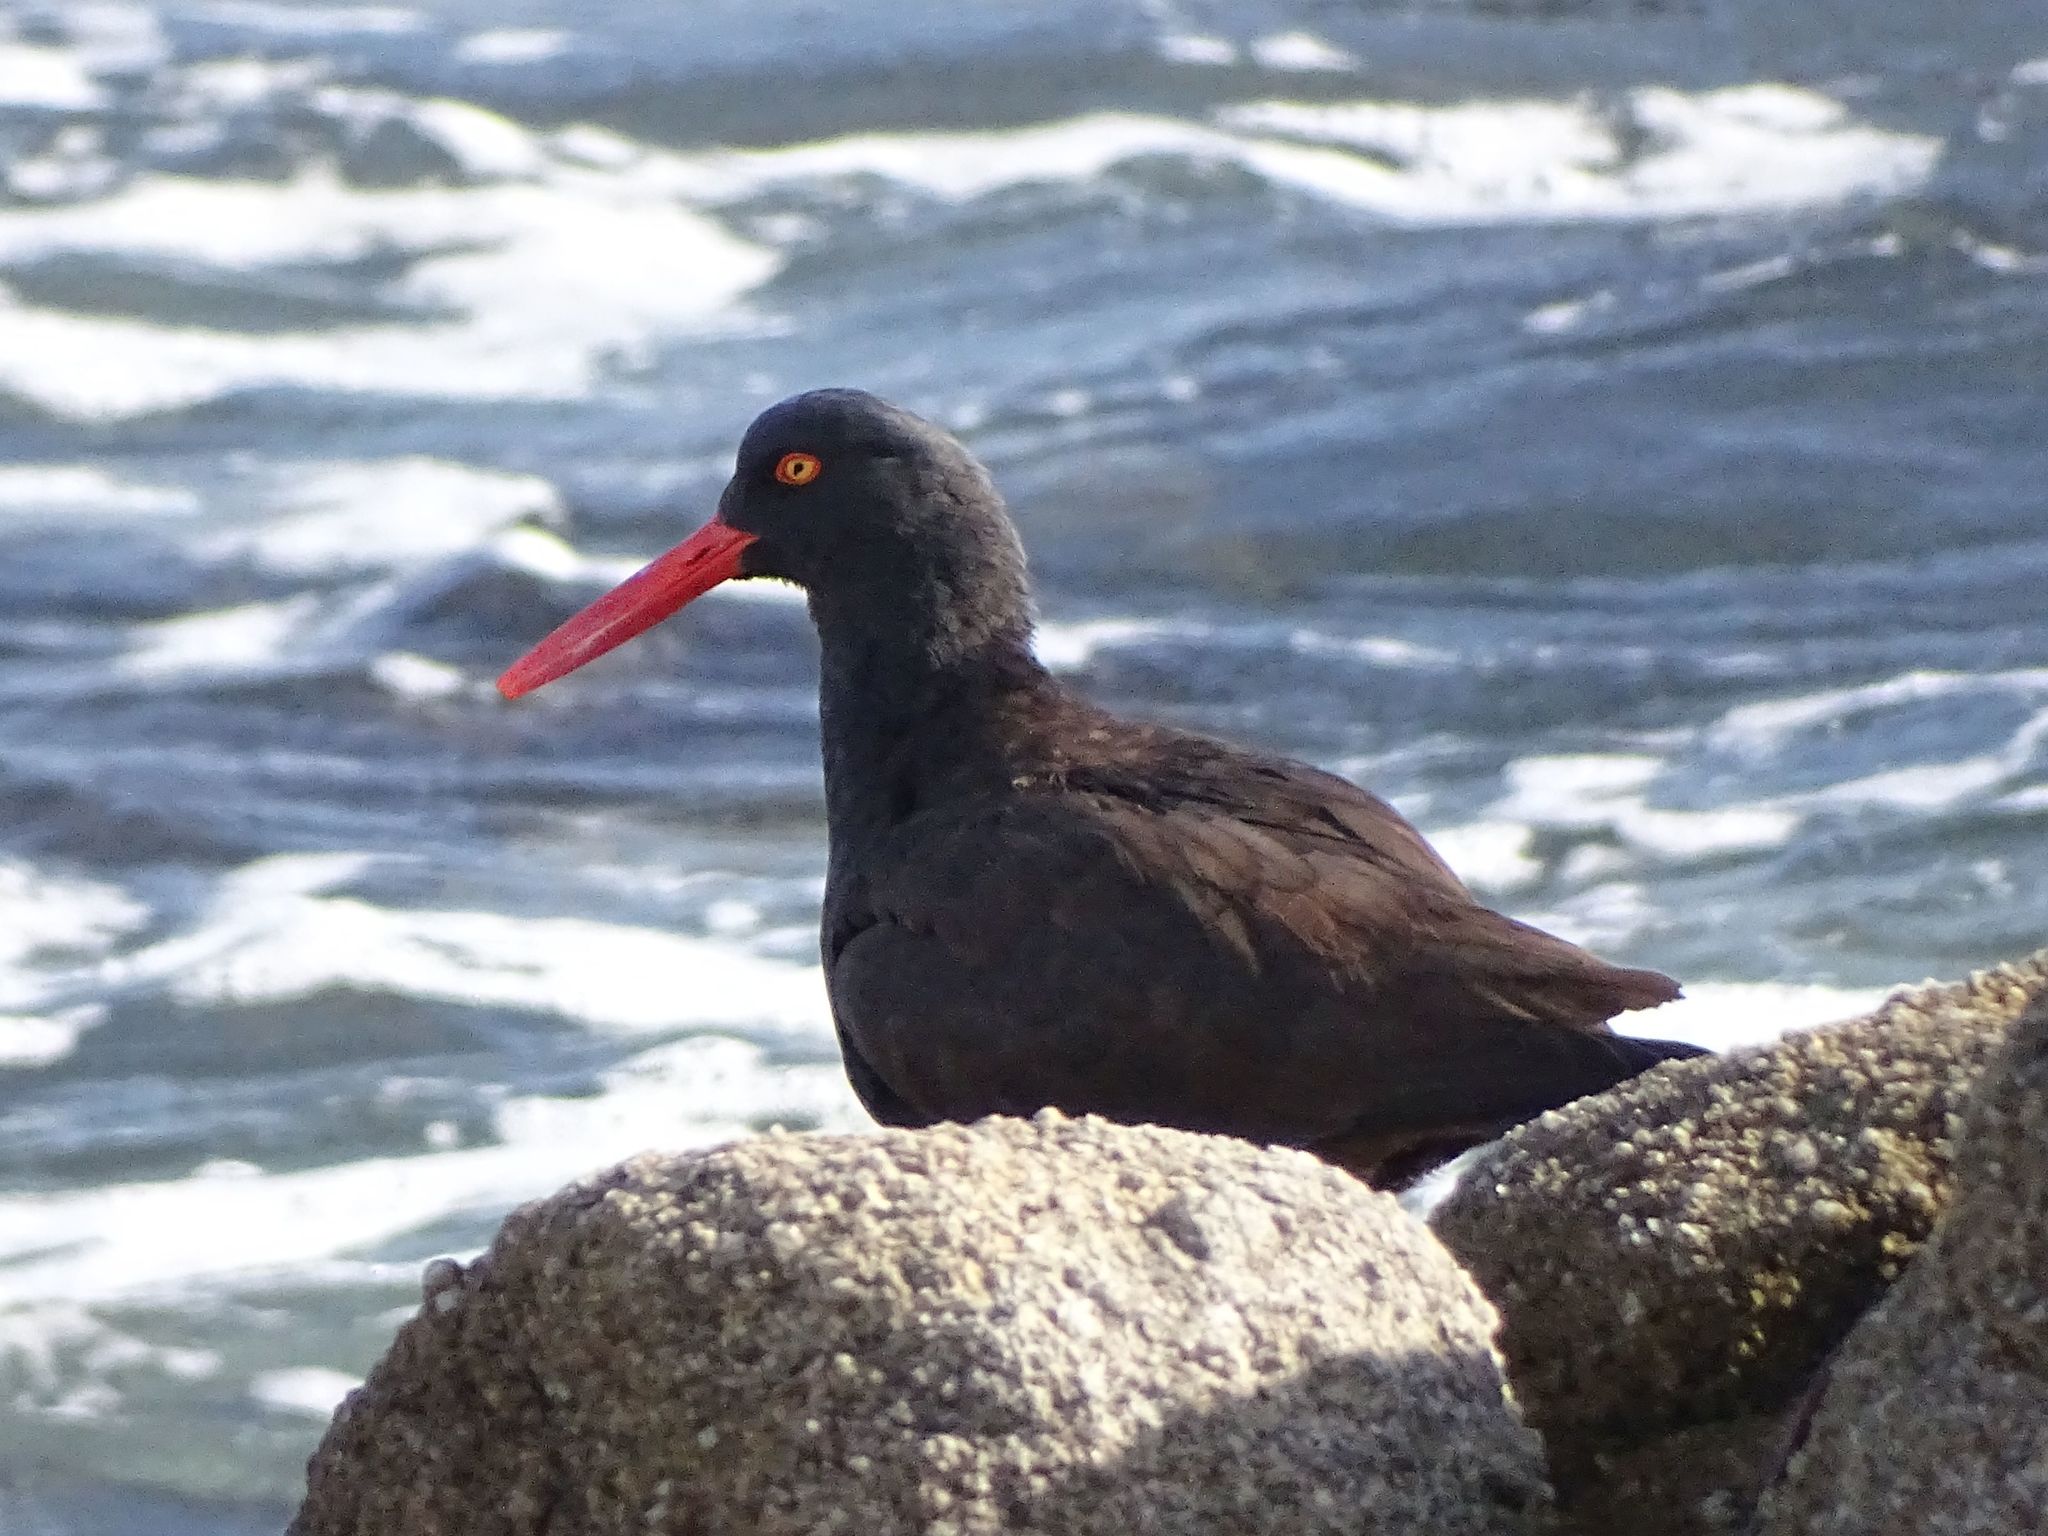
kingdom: Animalia
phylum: Chordata
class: Aves
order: Charadriiformes
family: Haematopodidae
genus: Haematopus
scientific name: Haematopus bachmani
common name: Black oystercatcher
